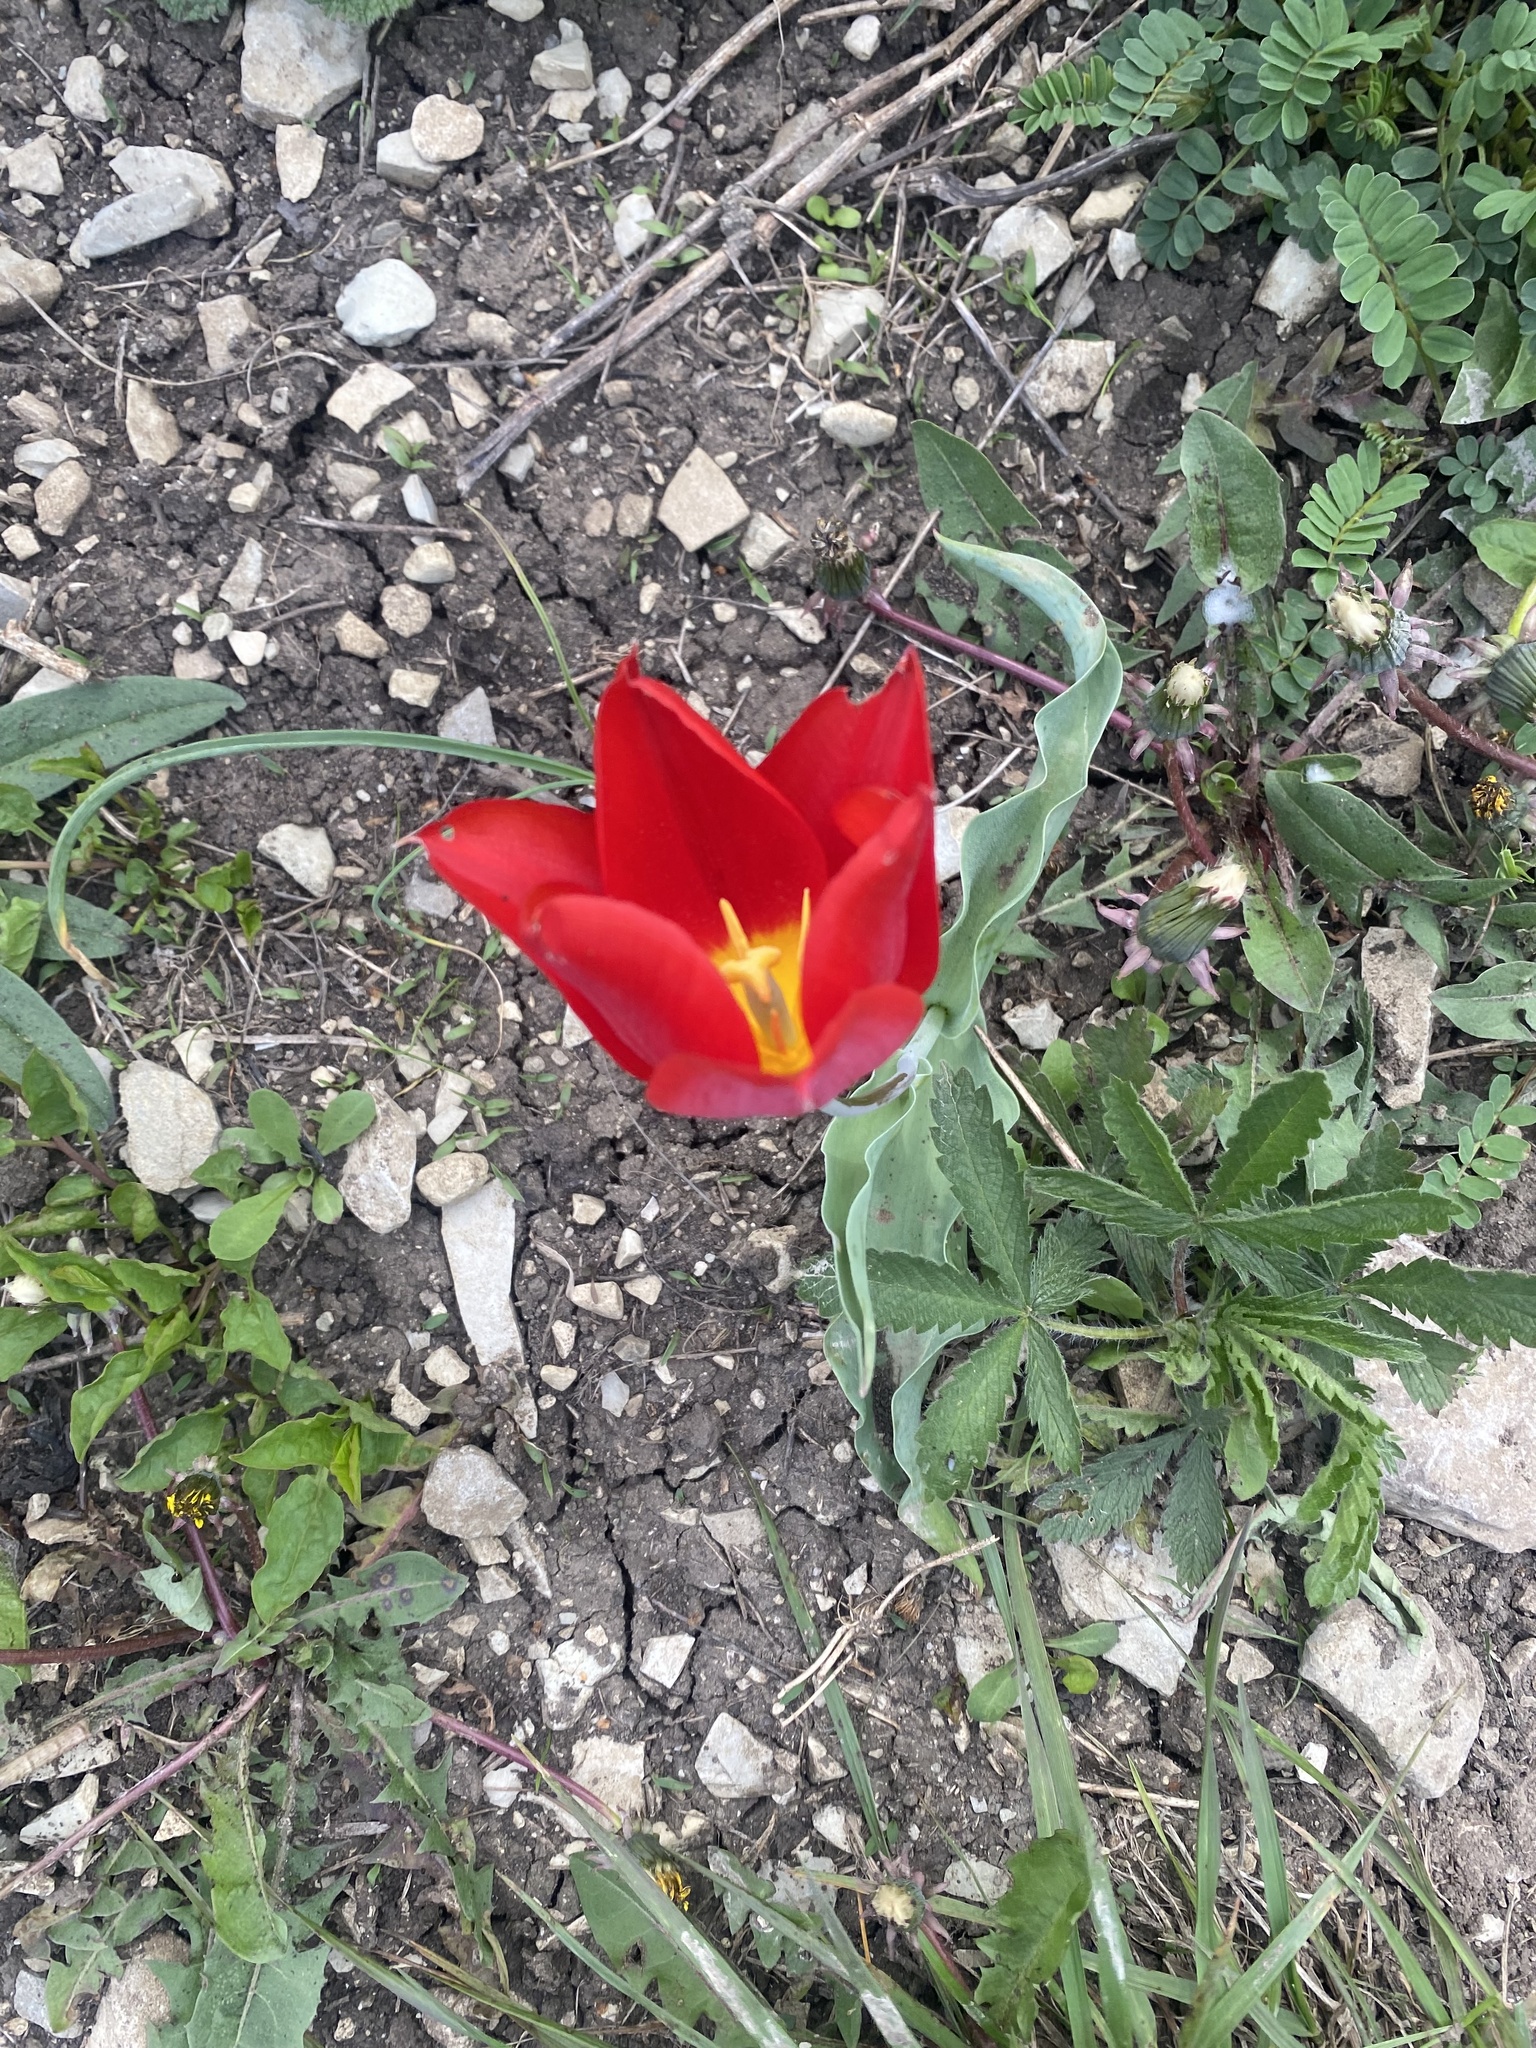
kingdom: Plantae
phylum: Tracheophyta
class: Liliopsida
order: Liliales
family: Liliaceae
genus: Tulipa
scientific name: Tulipa suaveolens
